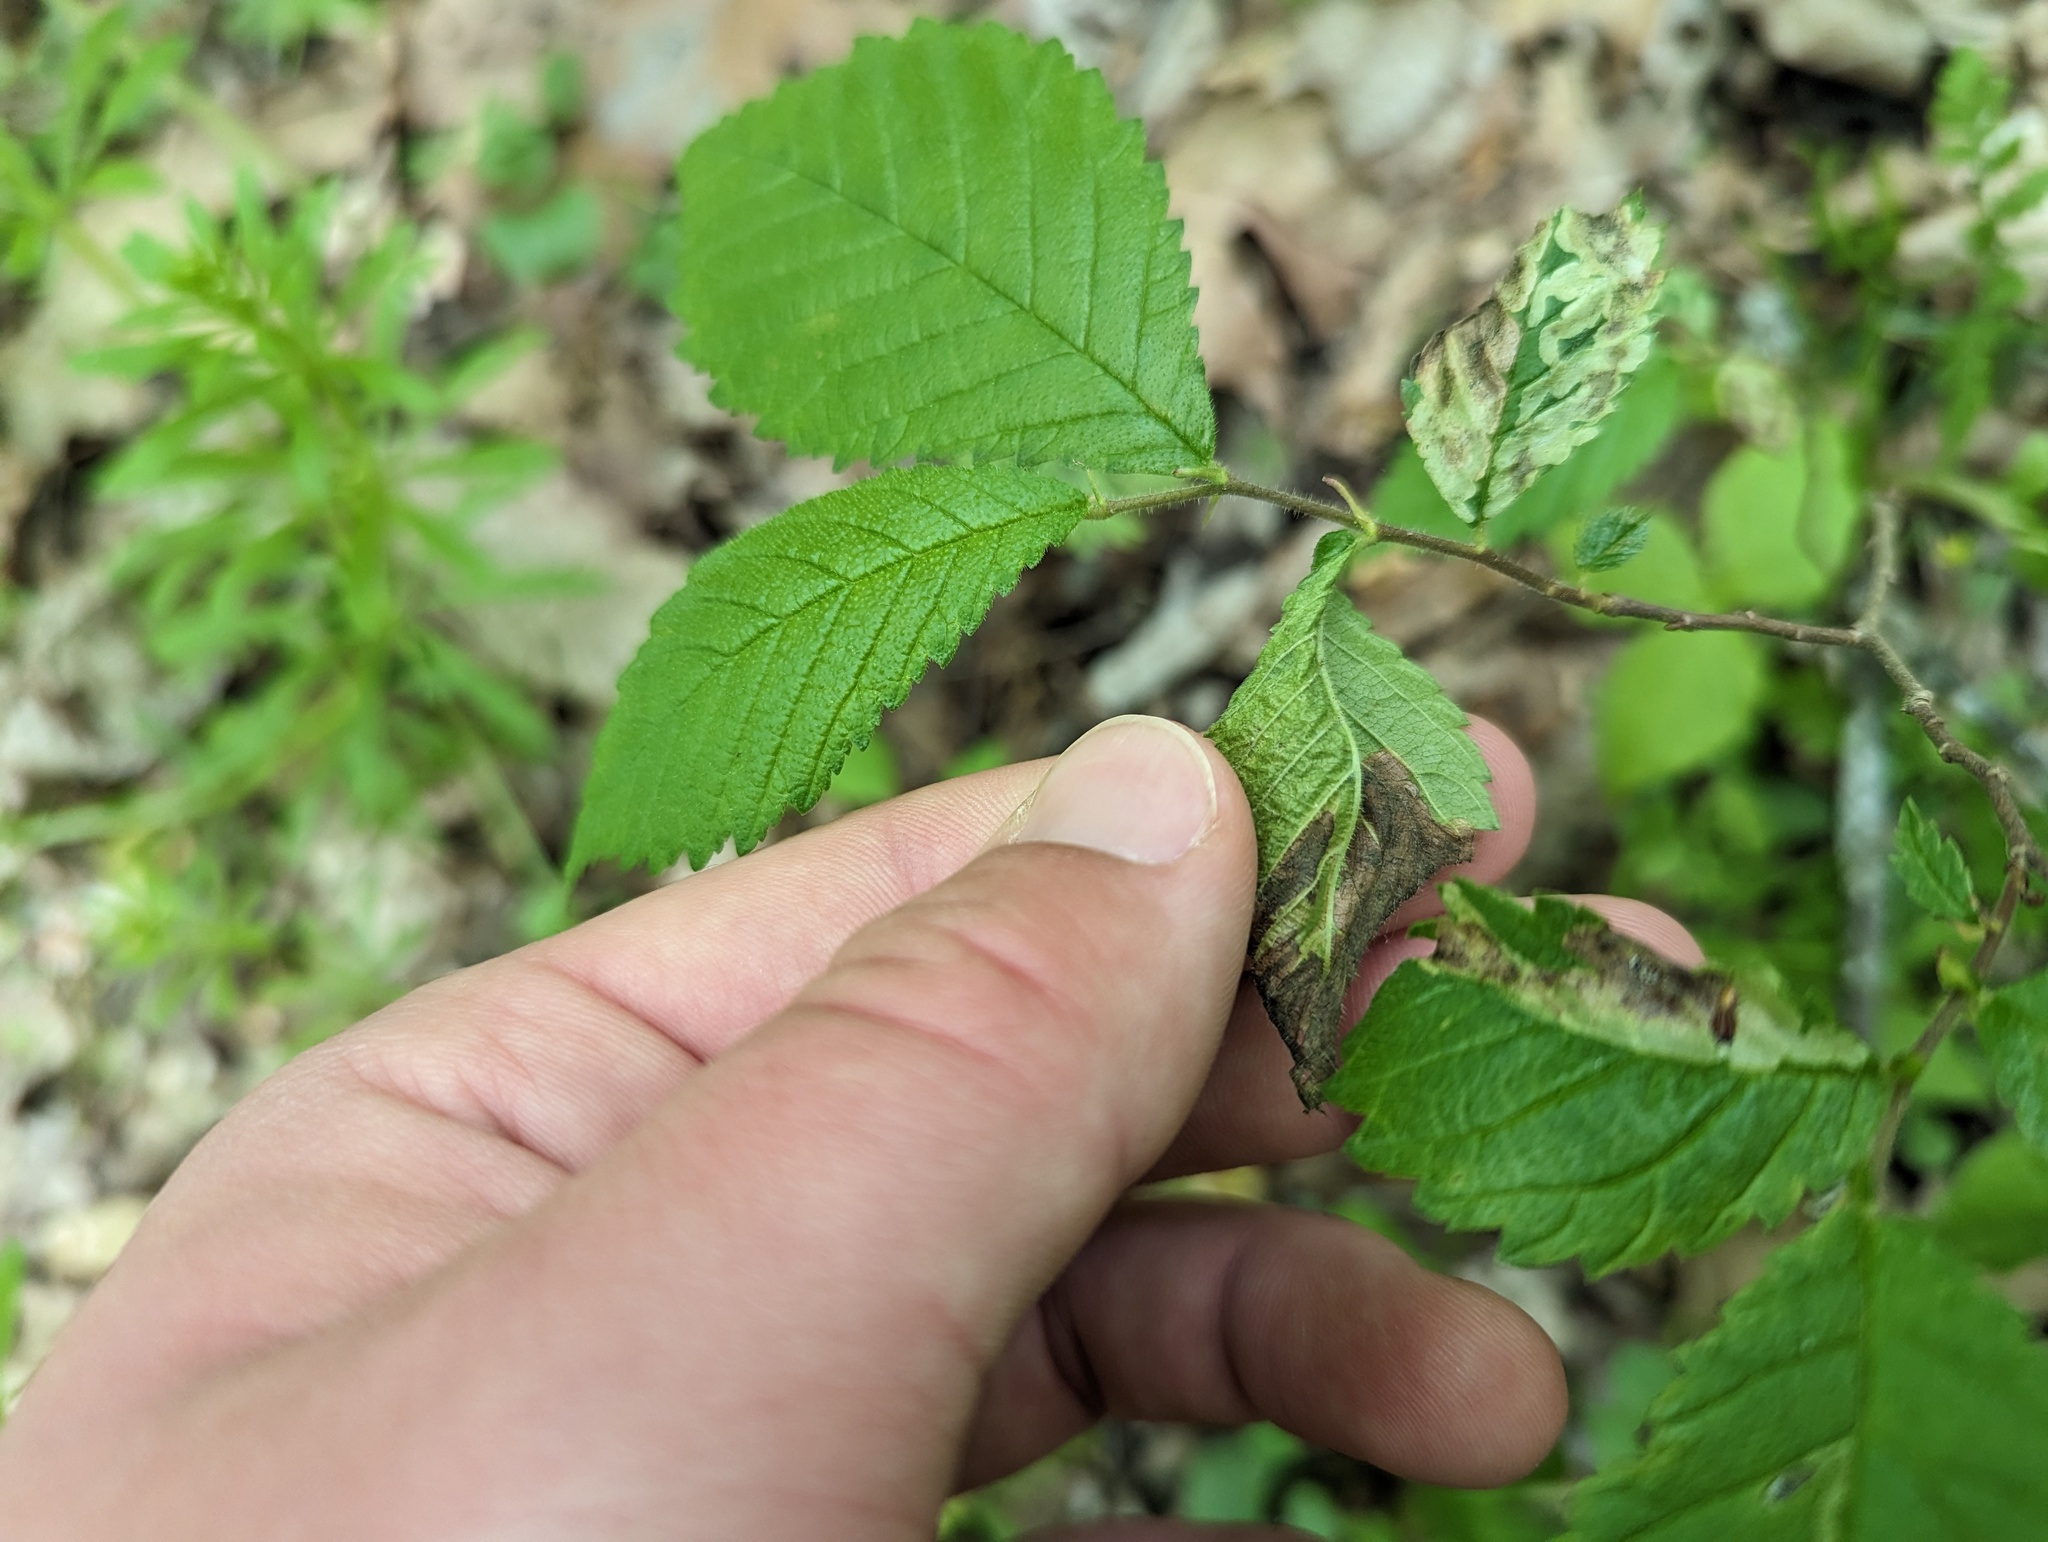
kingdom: Animalia
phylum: Arthropoda
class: Insecta
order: Diptera
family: Agromyzidae
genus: Agromyza
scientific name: Agromyza aristata
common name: Elm agromyzid leafminer
